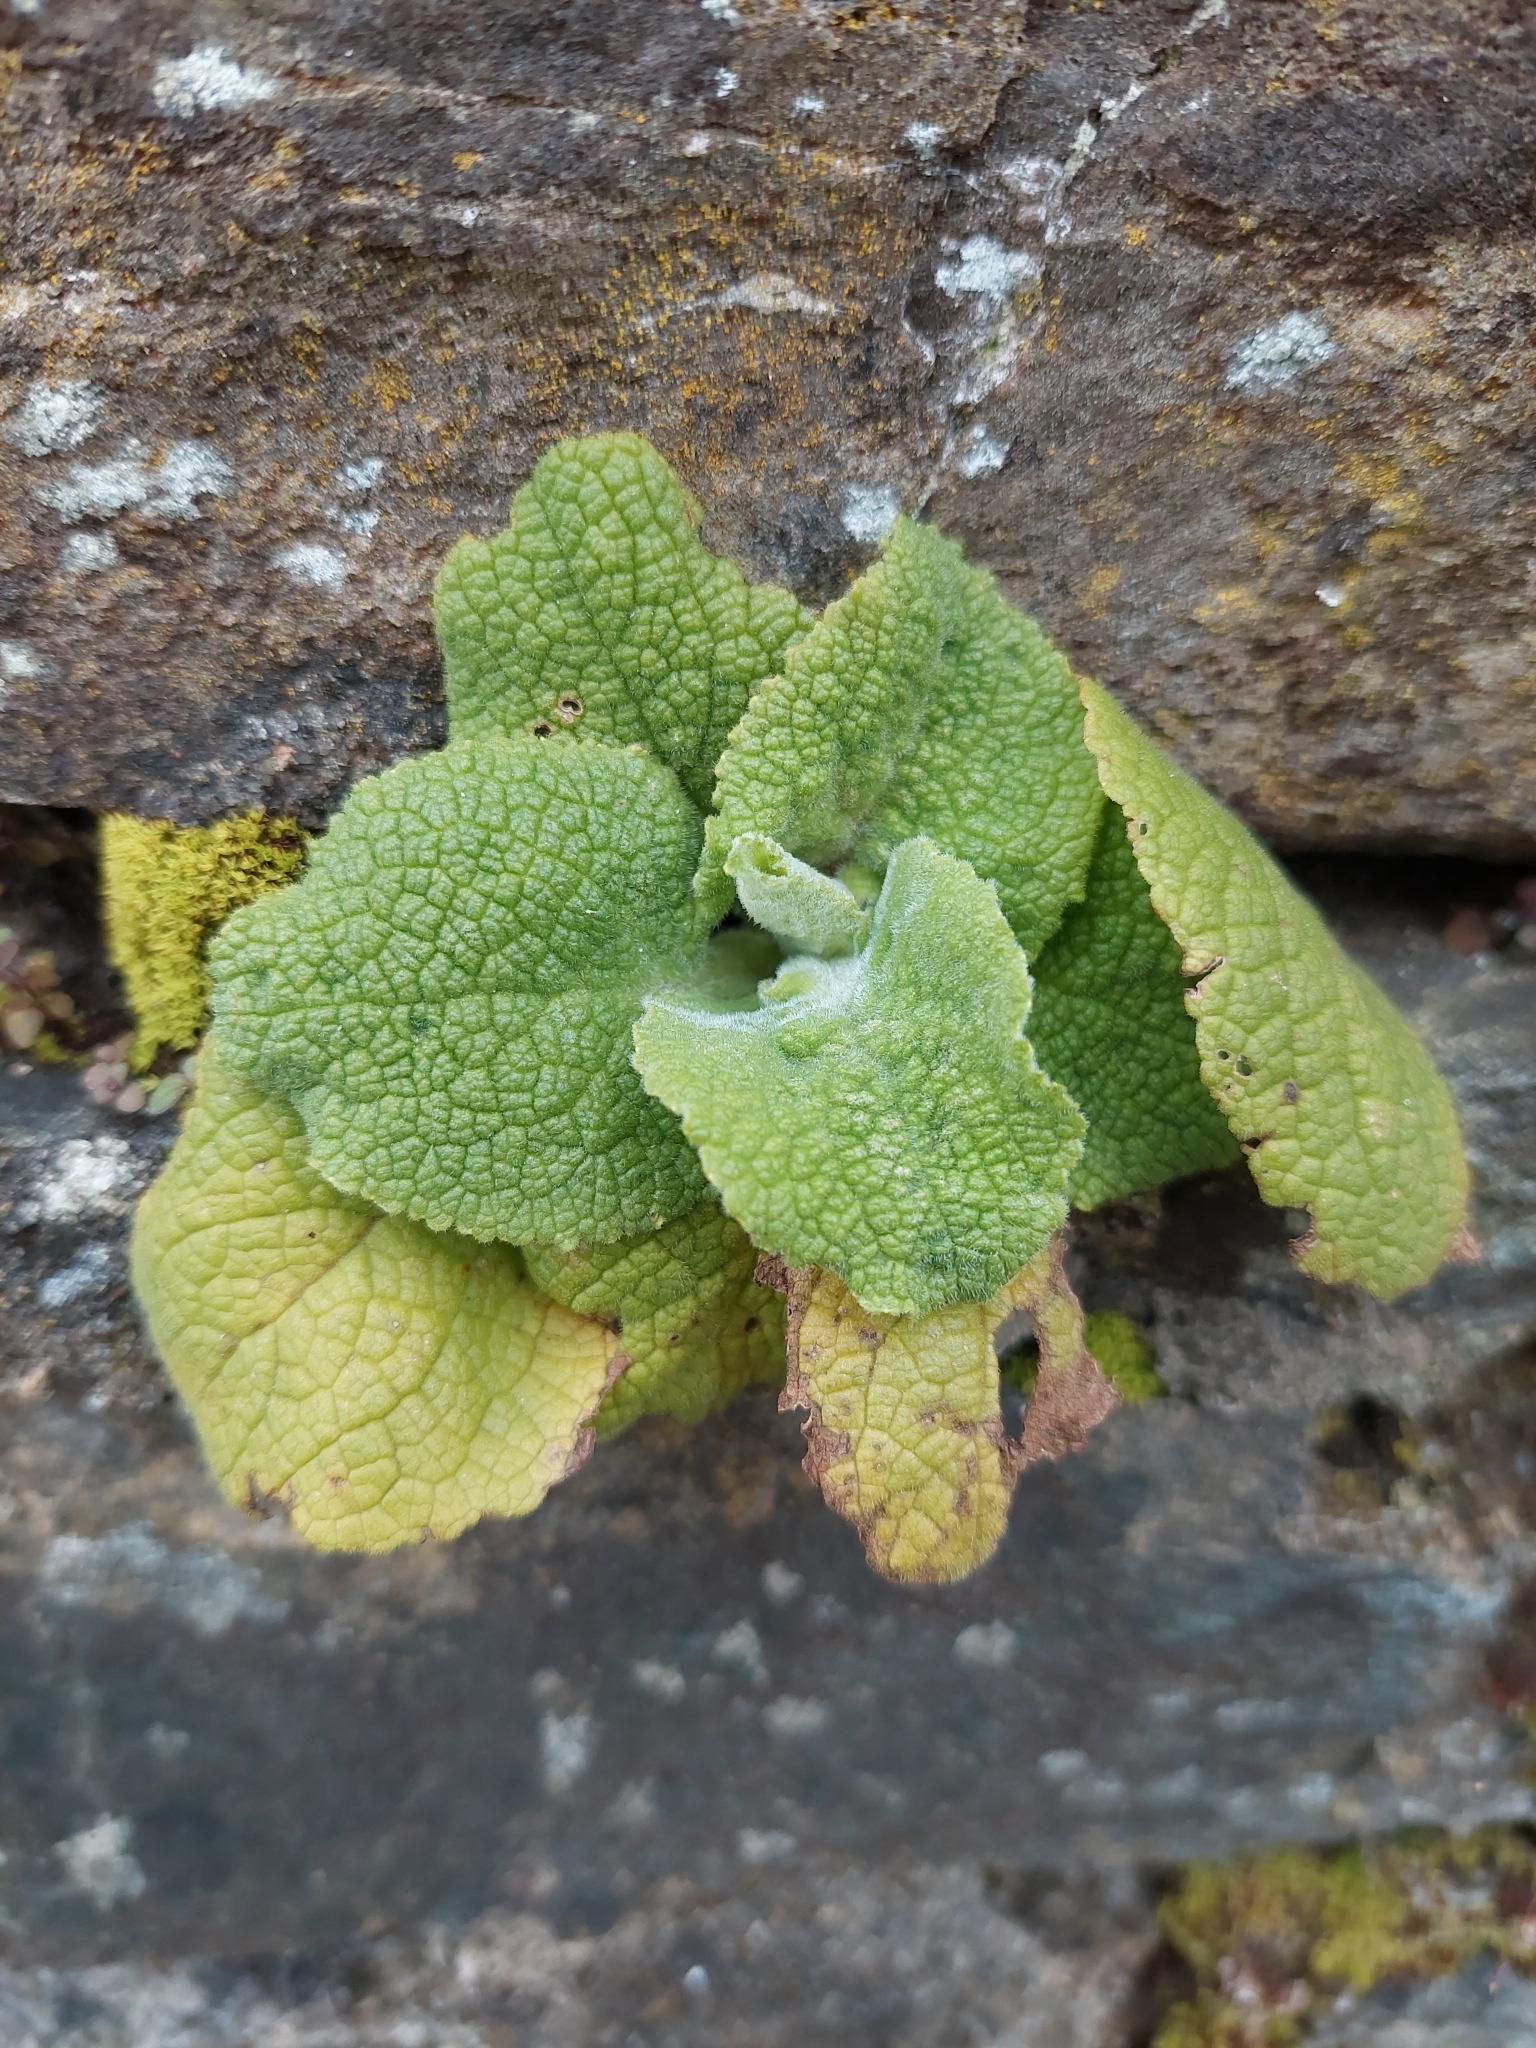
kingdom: Plantae
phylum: Tracheophyta
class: Magnoliopsida
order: Lamiales
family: Plantaginaceae
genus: Digitalis
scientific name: Digitalis purpurea
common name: Foxglove
